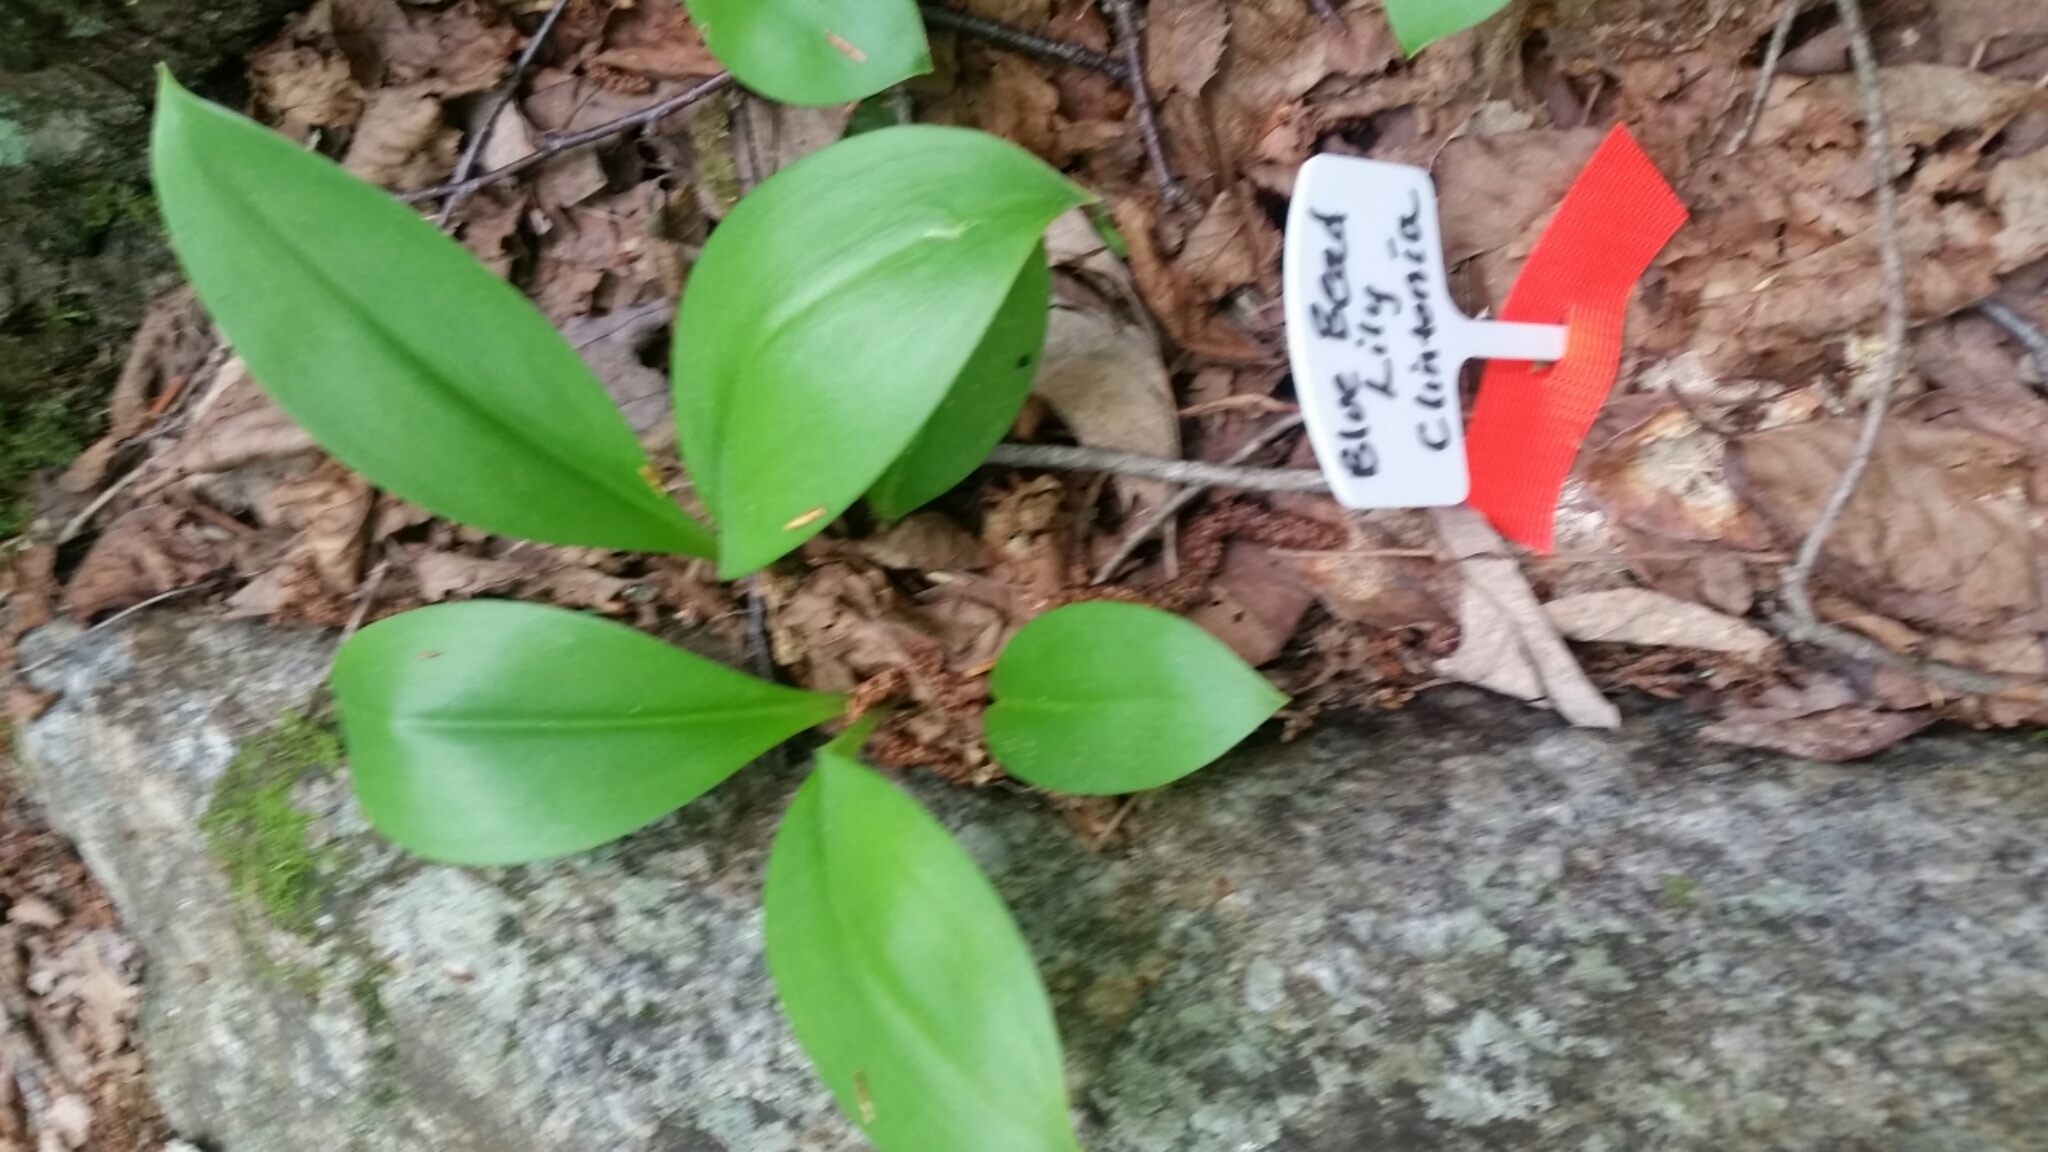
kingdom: Plantae
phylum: Tracheophyta
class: Liliopsida
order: Liliales
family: Liliaceae
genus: Clintonia
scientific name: Clintonia borealis
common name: Yellow clintonia
